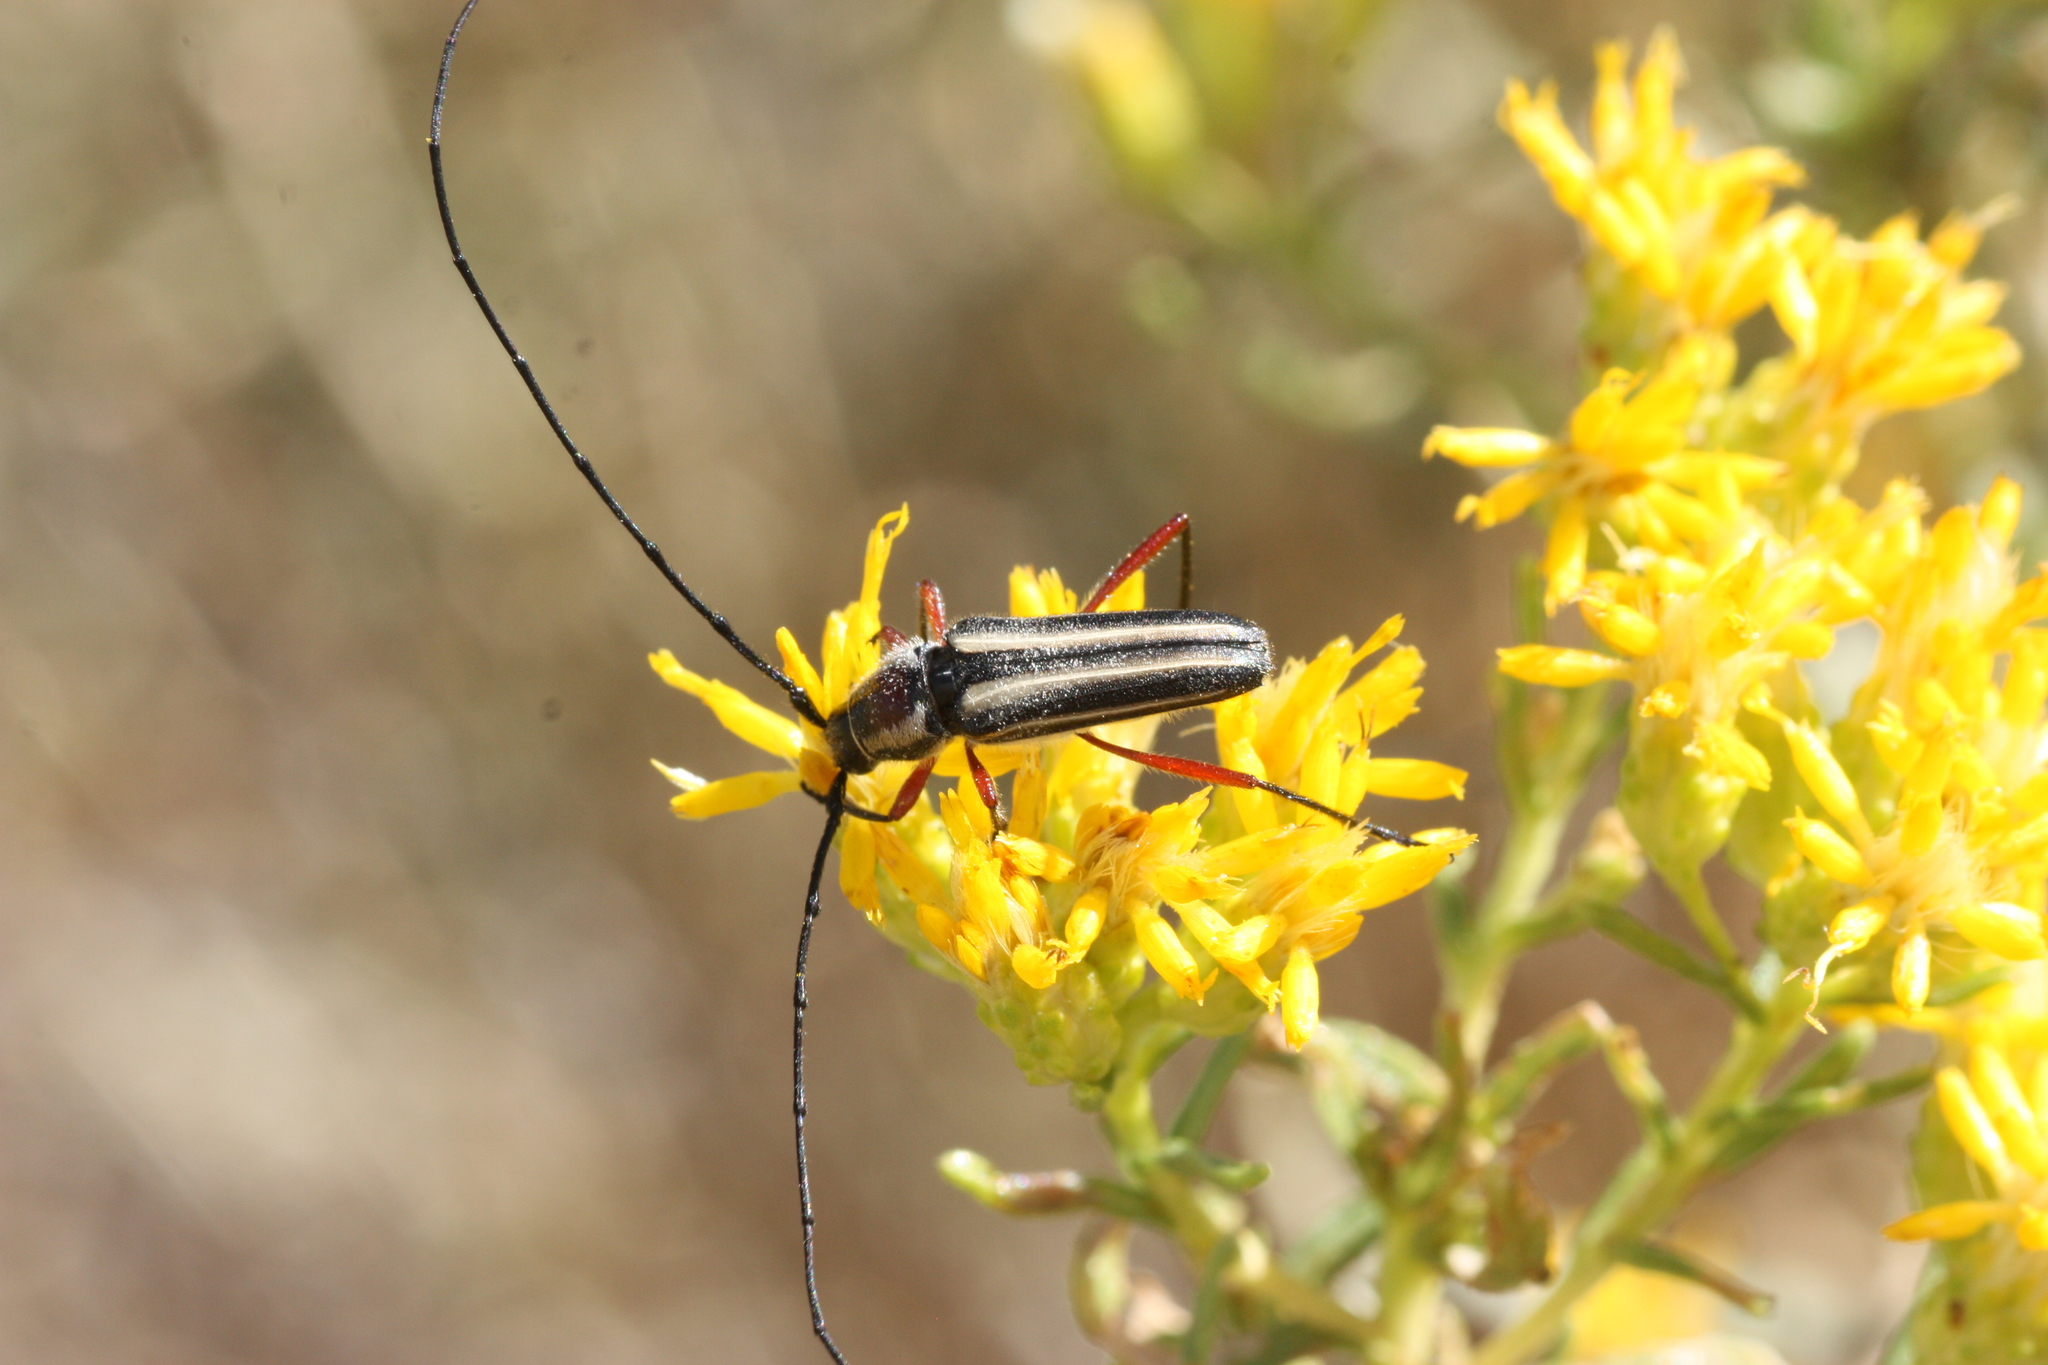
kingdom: Animalia
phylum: Arthropoda
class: Insecta
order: Coleoptera
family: Cerambycidae
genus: Sphaenothecus
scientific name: Sphaenothecus bilineatus
